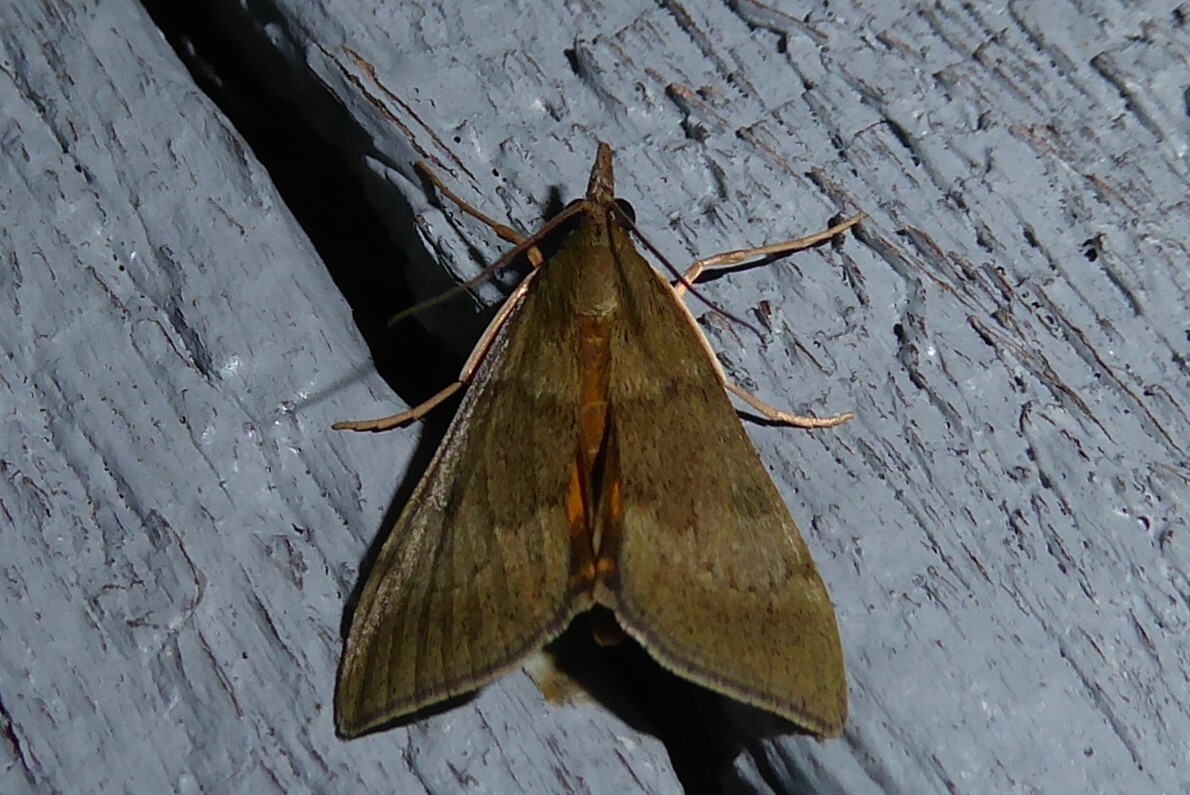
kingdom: Animalia
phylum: Arthropoda
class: Insecta
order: Lepidoptera
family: Crambidae
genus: Uresiphita
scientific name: Uresiphita
